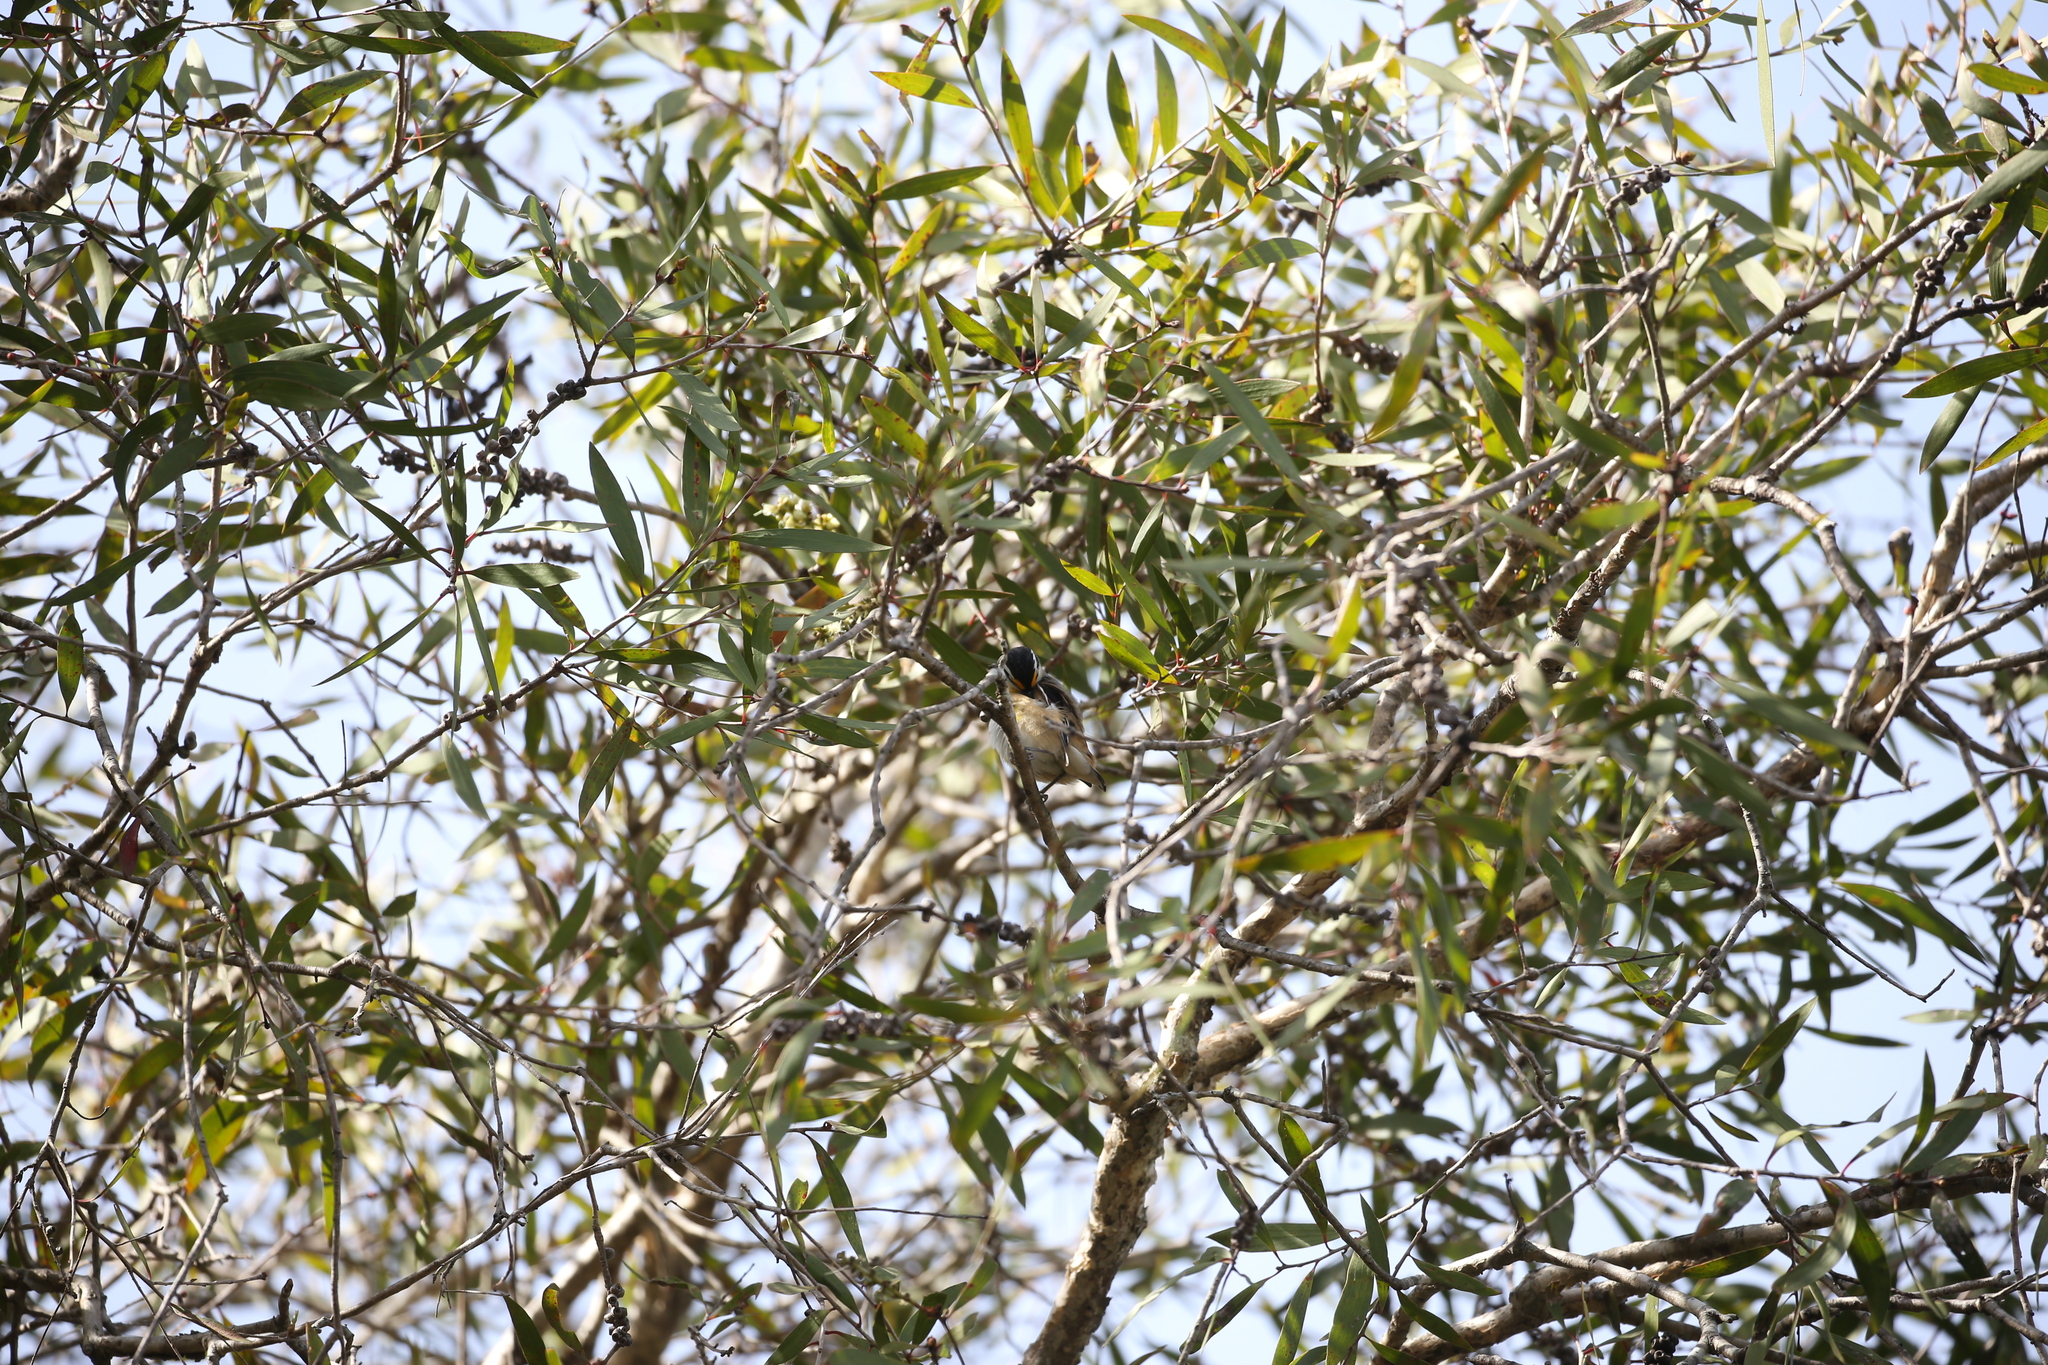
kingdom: Animalia
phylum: Chordata
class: Aves
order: Passeriformes
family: Pardalotidae
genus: Pardalotus
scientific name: Pardalotus striatus
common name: Striated pardalote
